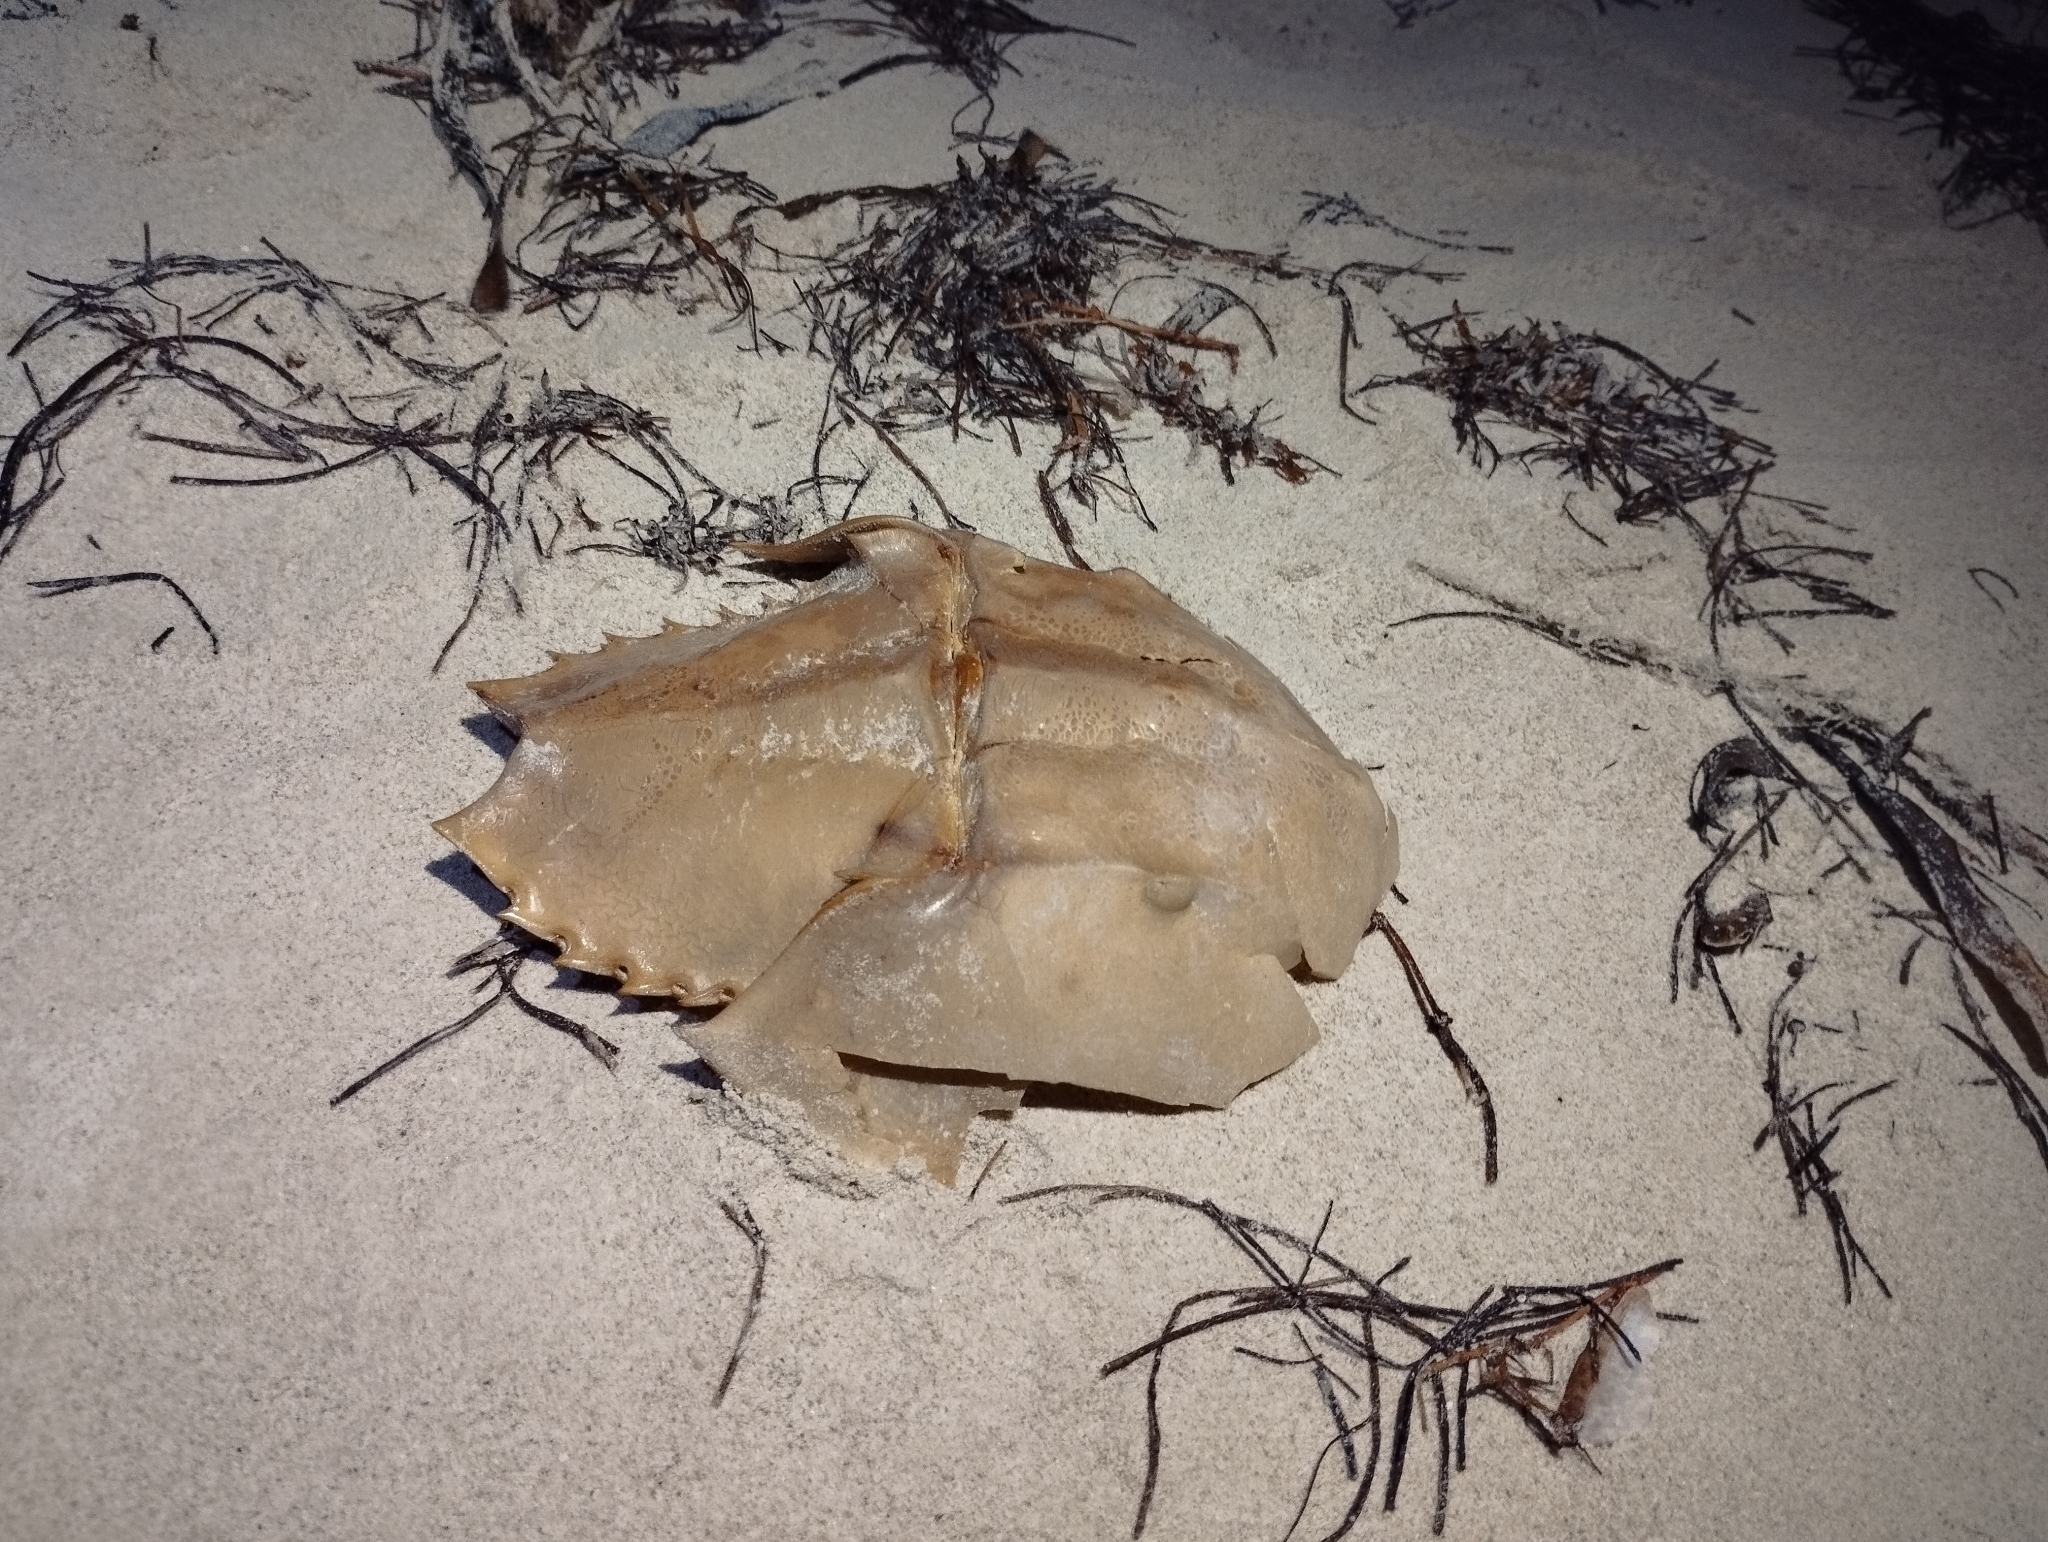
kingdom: Animalia
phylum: Arthropoda
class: Merostomata
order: Xiphosurida
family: Limulidae
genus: Limulus
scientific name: Limulus polyphemus
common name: Horseshoe crab
